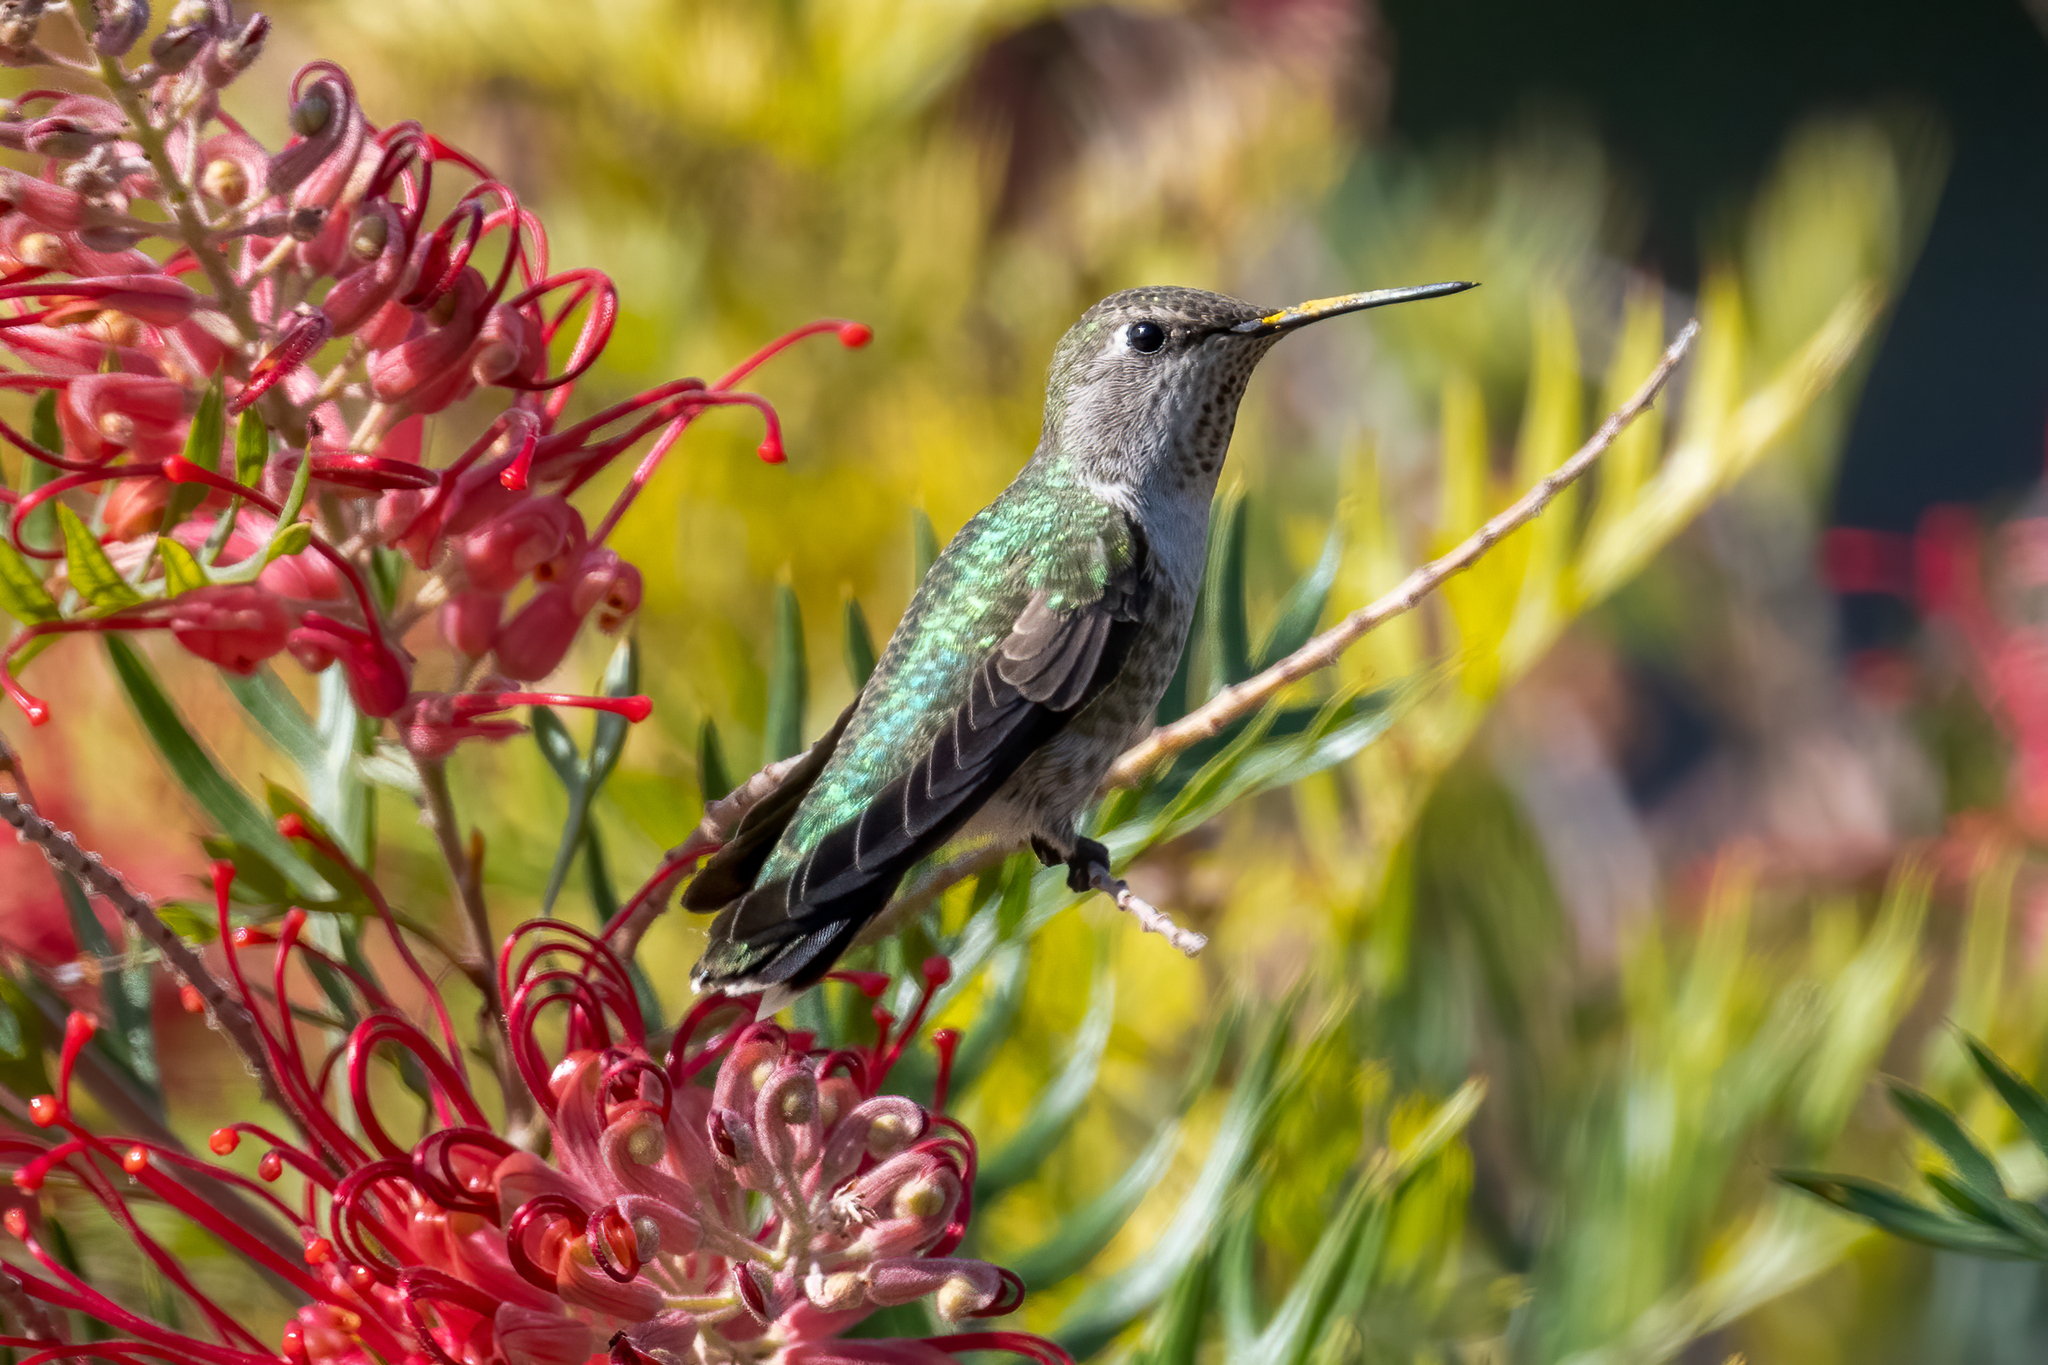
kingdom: Animalia
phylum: Chordata
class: Aves
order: Apodiformes
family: Trochilidae
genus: Calypte
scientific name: Calypte anna
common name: Anna's hummingbird
